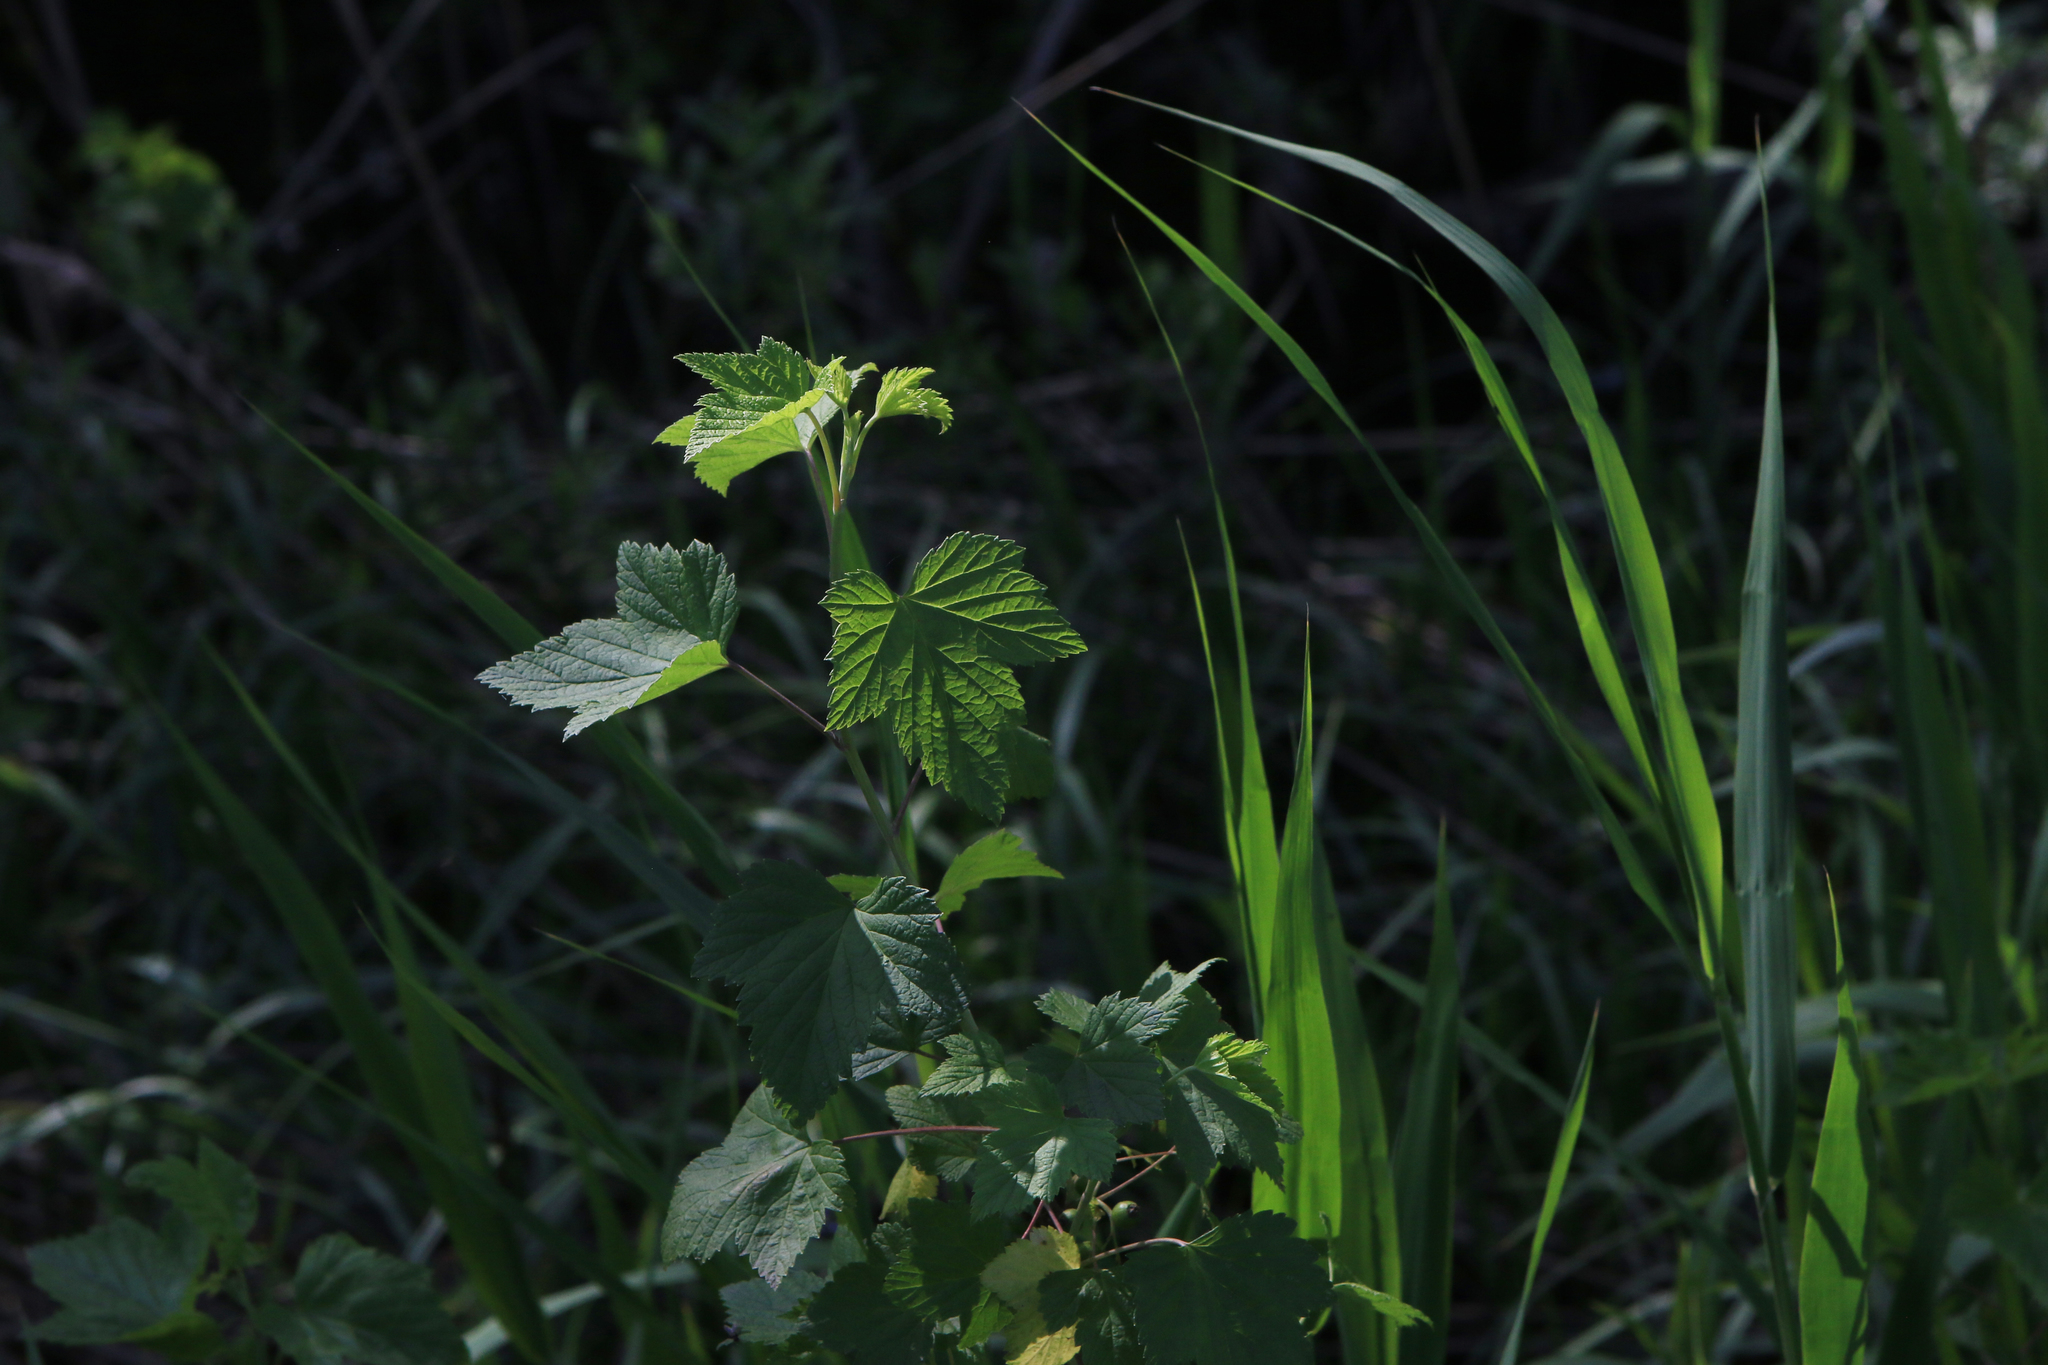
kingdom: Plantae
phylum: Tracheophyta
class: Magnoliopsida
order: Saxifragales
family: Grossulariaceae
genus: Ribes
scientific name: Ribes nigrum
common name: Black currant
